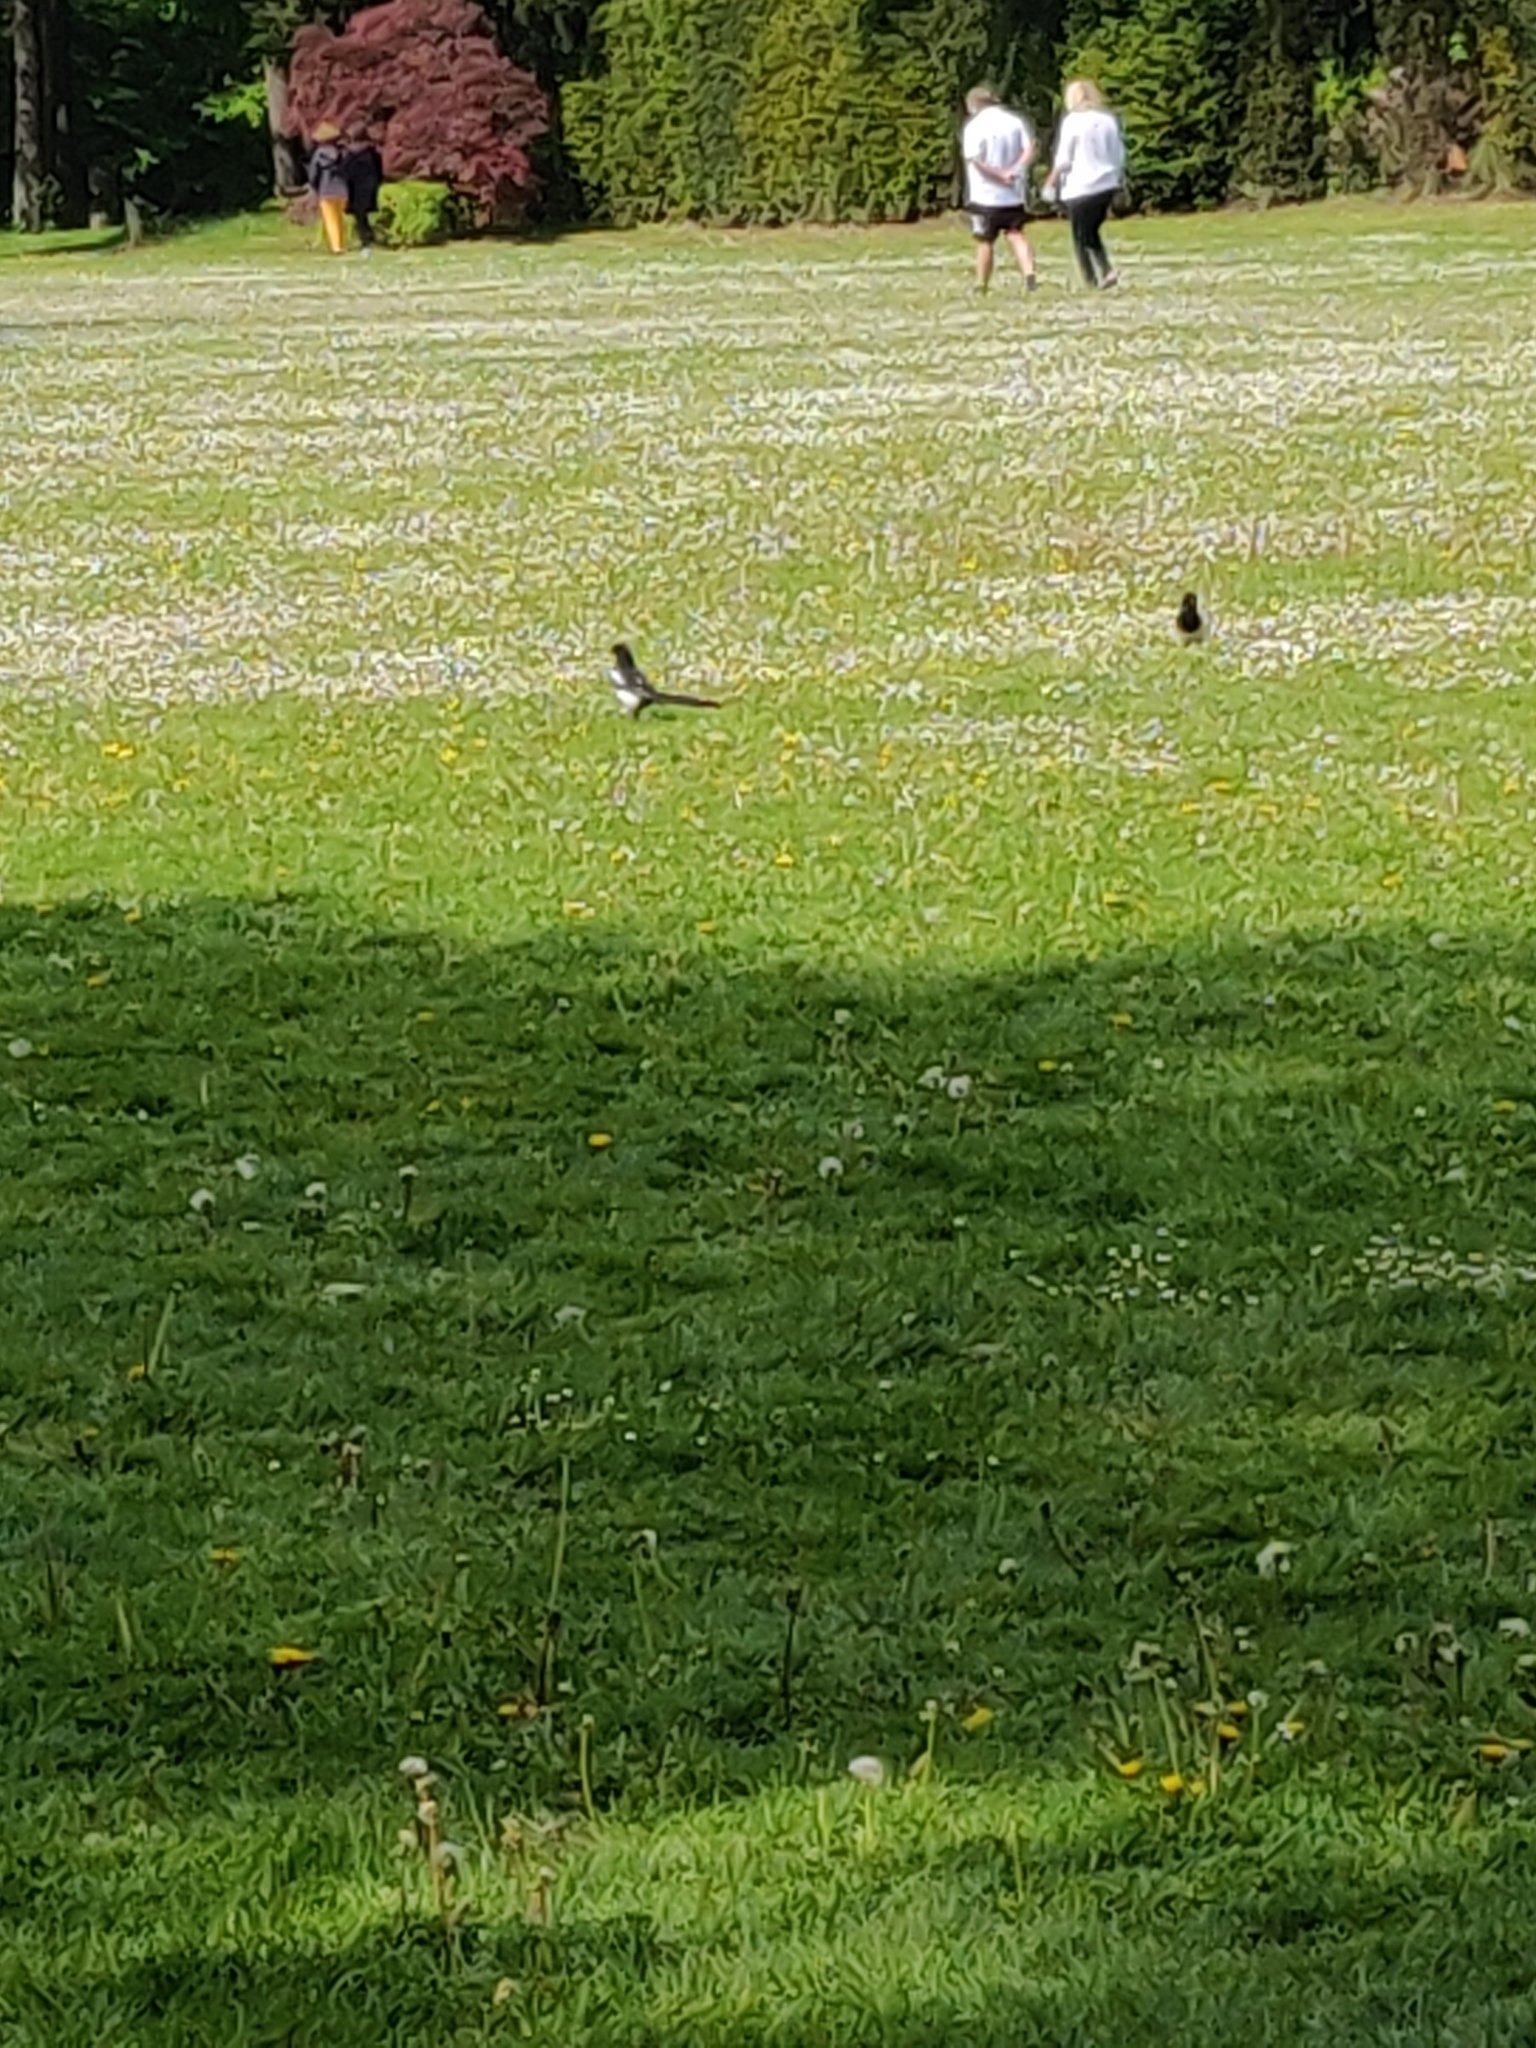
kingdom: Animalia
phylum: Chordata
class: Aves
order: Passeriformes
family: Corvidae
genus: Pica
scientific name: Pica pica
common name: Eurasian magpie
